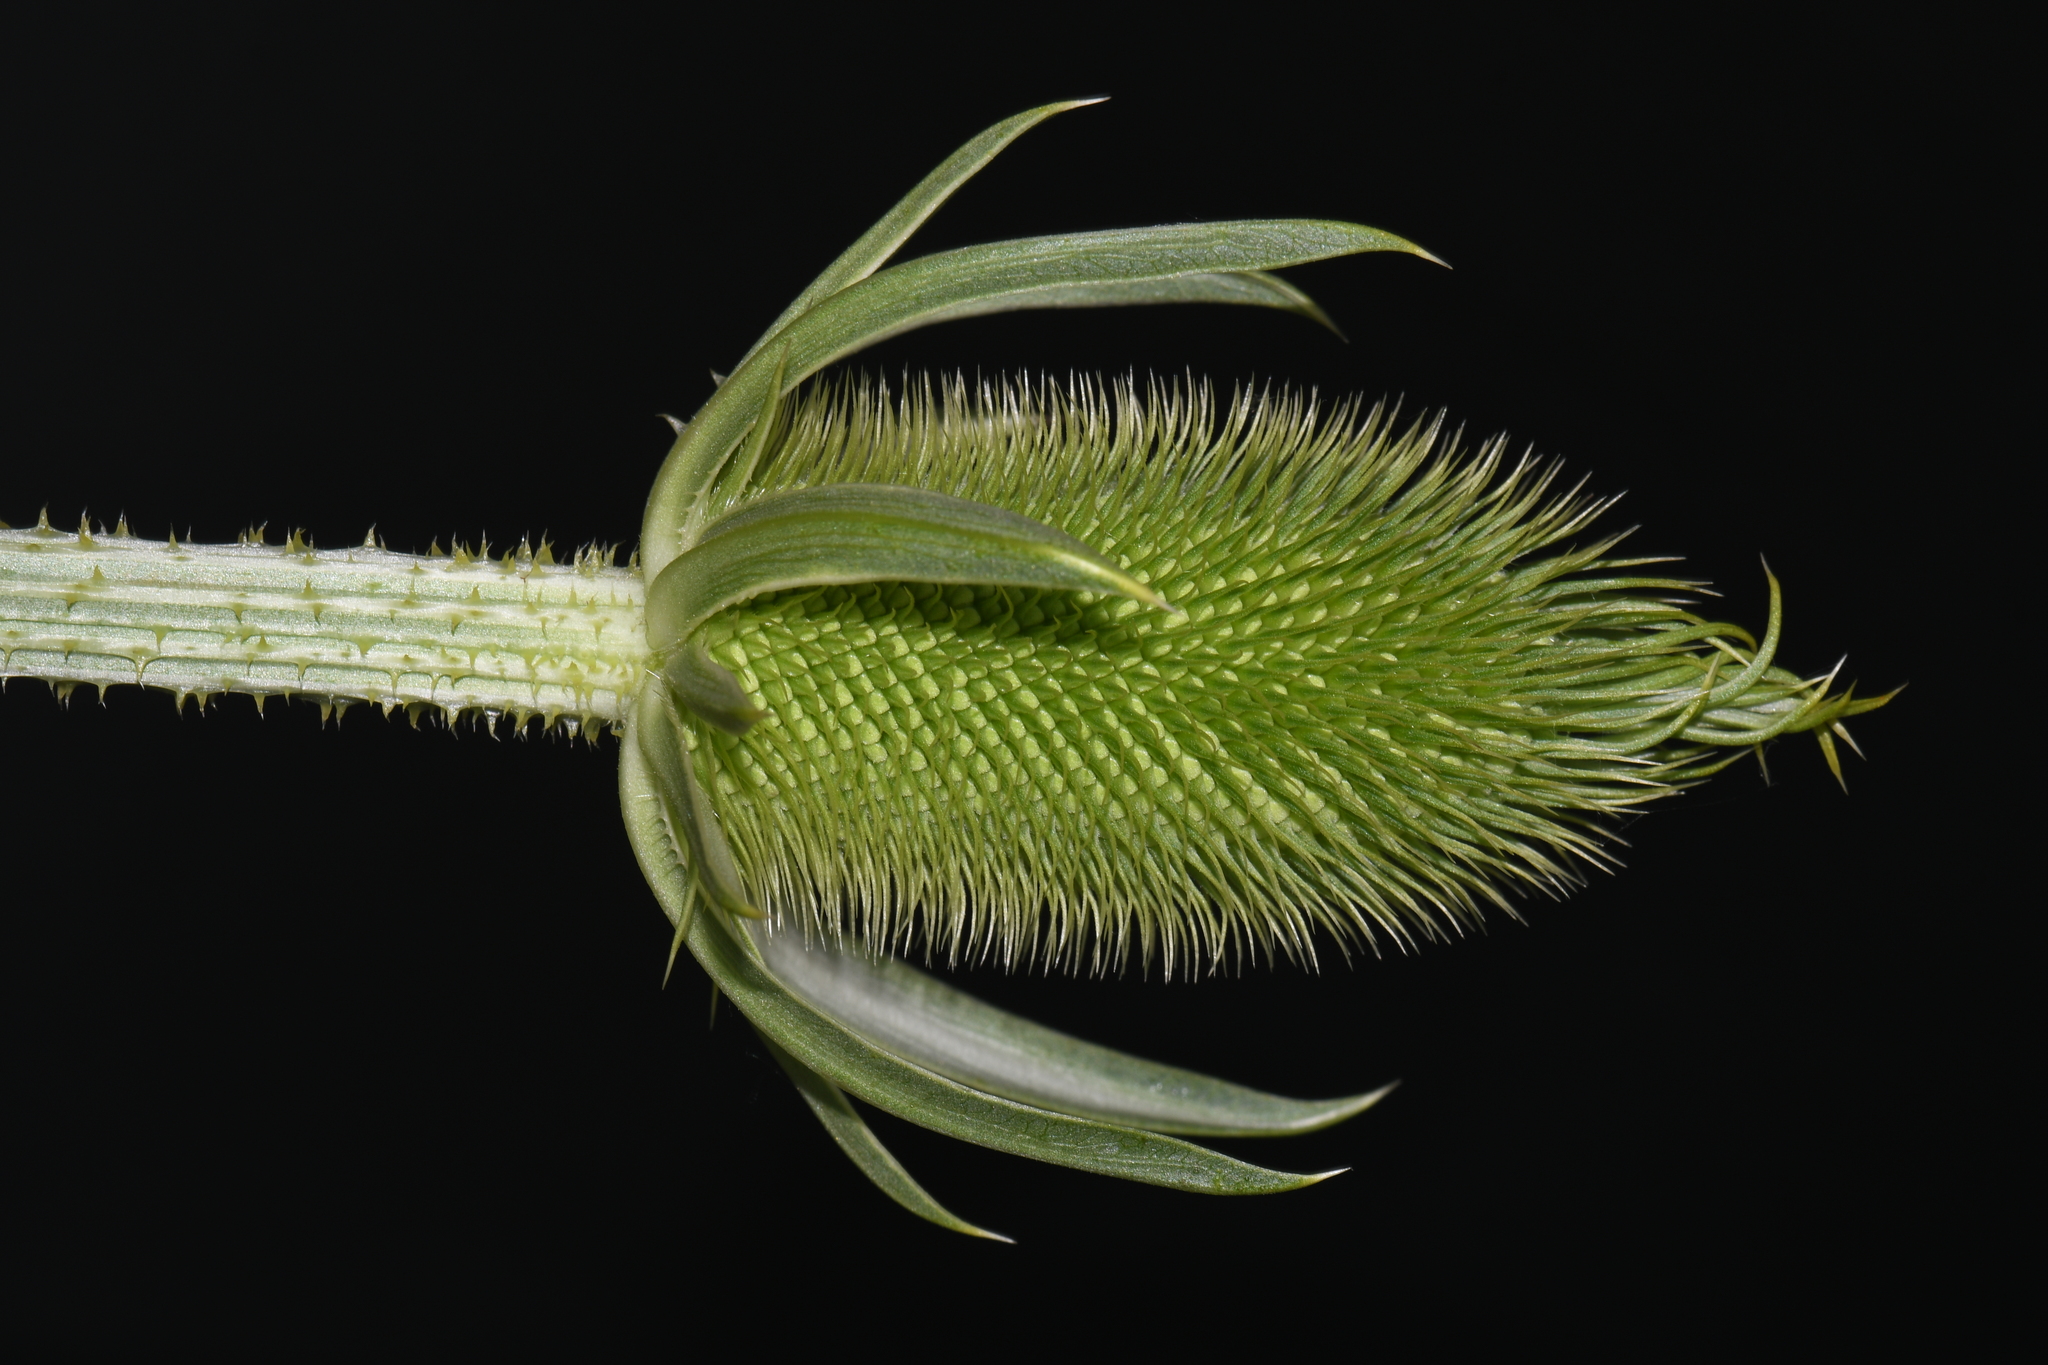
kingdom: Plantae
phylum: Tracheophyta
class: Magnoliopsida
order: Dipsacales
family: Caprifoliaceae
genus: Dipsacus
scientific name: Dipsacus laciniatus
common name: Cut-leaved teasel
